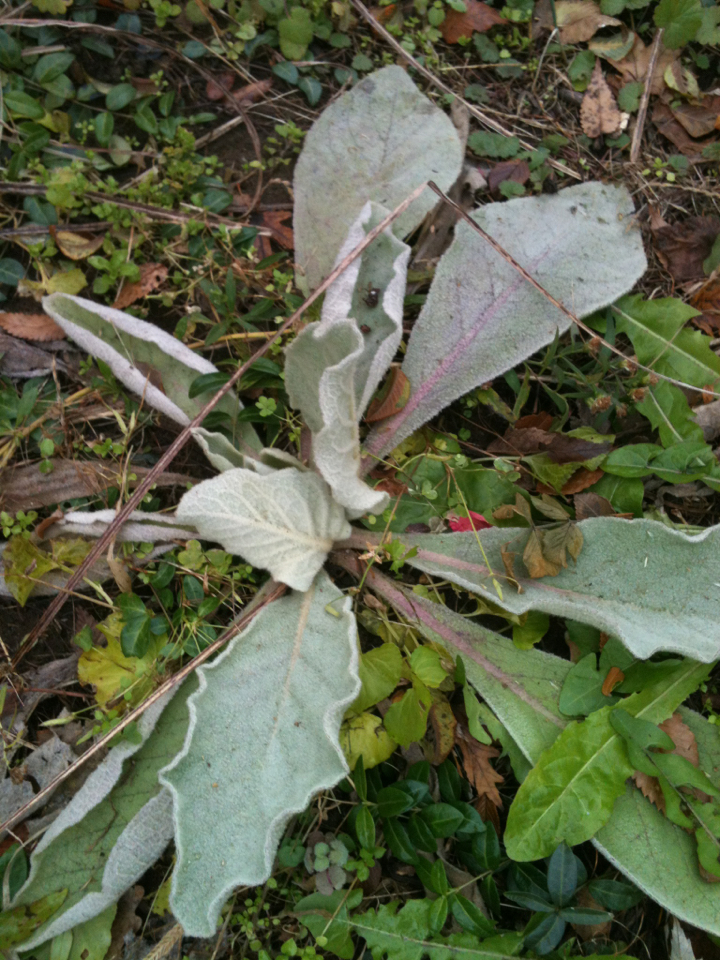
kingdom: Plantae
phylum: Tracheophyta
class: Magnoliopsida
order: Lamiales
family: Scrophulariaceae
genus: Verbascum
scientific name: Verbascum thapsus
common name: Common mullein
